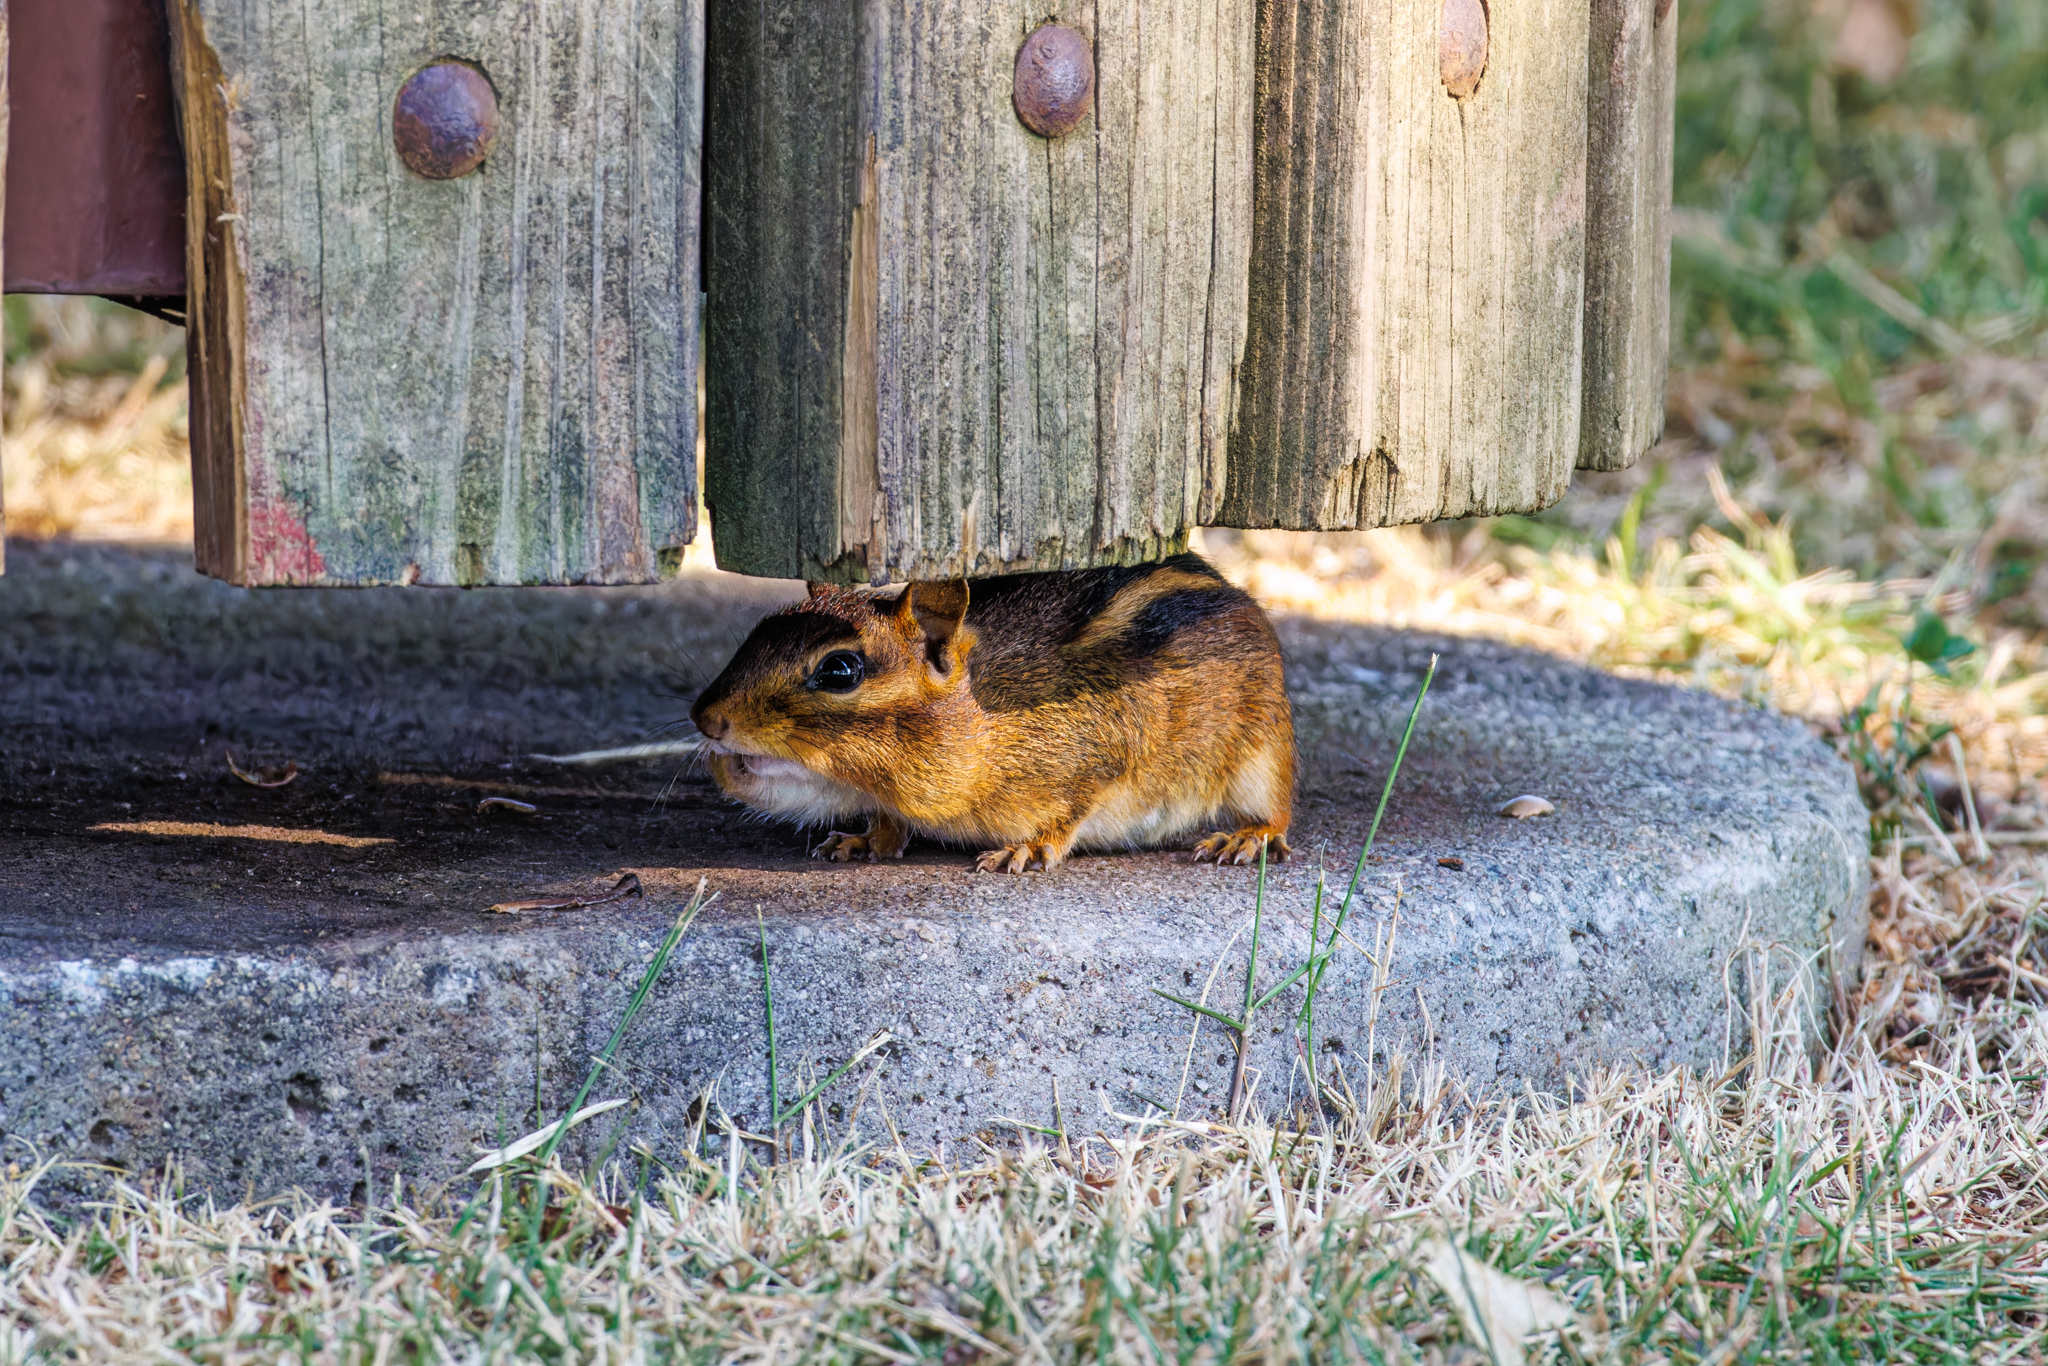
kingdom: Animalia
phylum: Chordata
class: Mammalia
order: Rodentia
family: Sciuridae
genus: Tamias
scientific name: Tamias striatus
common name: Eastern chipmunk
